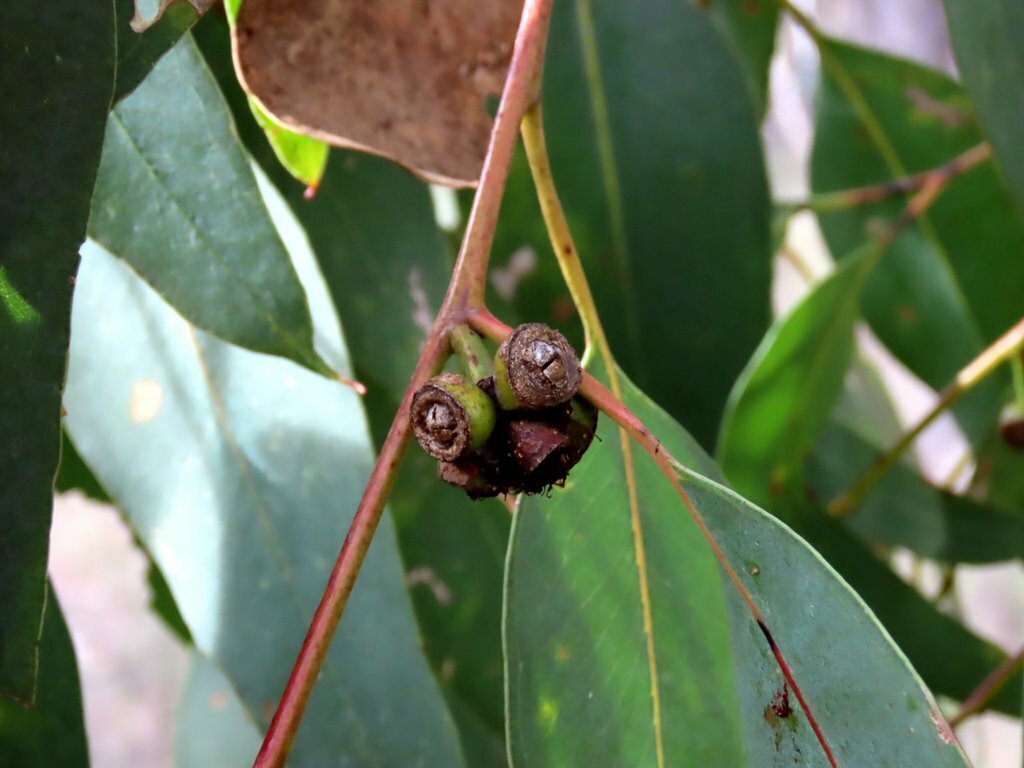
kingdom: Plantae
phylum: Tracheophyta
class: Magnoliopsida
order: Myrtales
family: Myrtaceae
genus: Eucalyptus
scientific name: Eucalyptus goniocalyx
